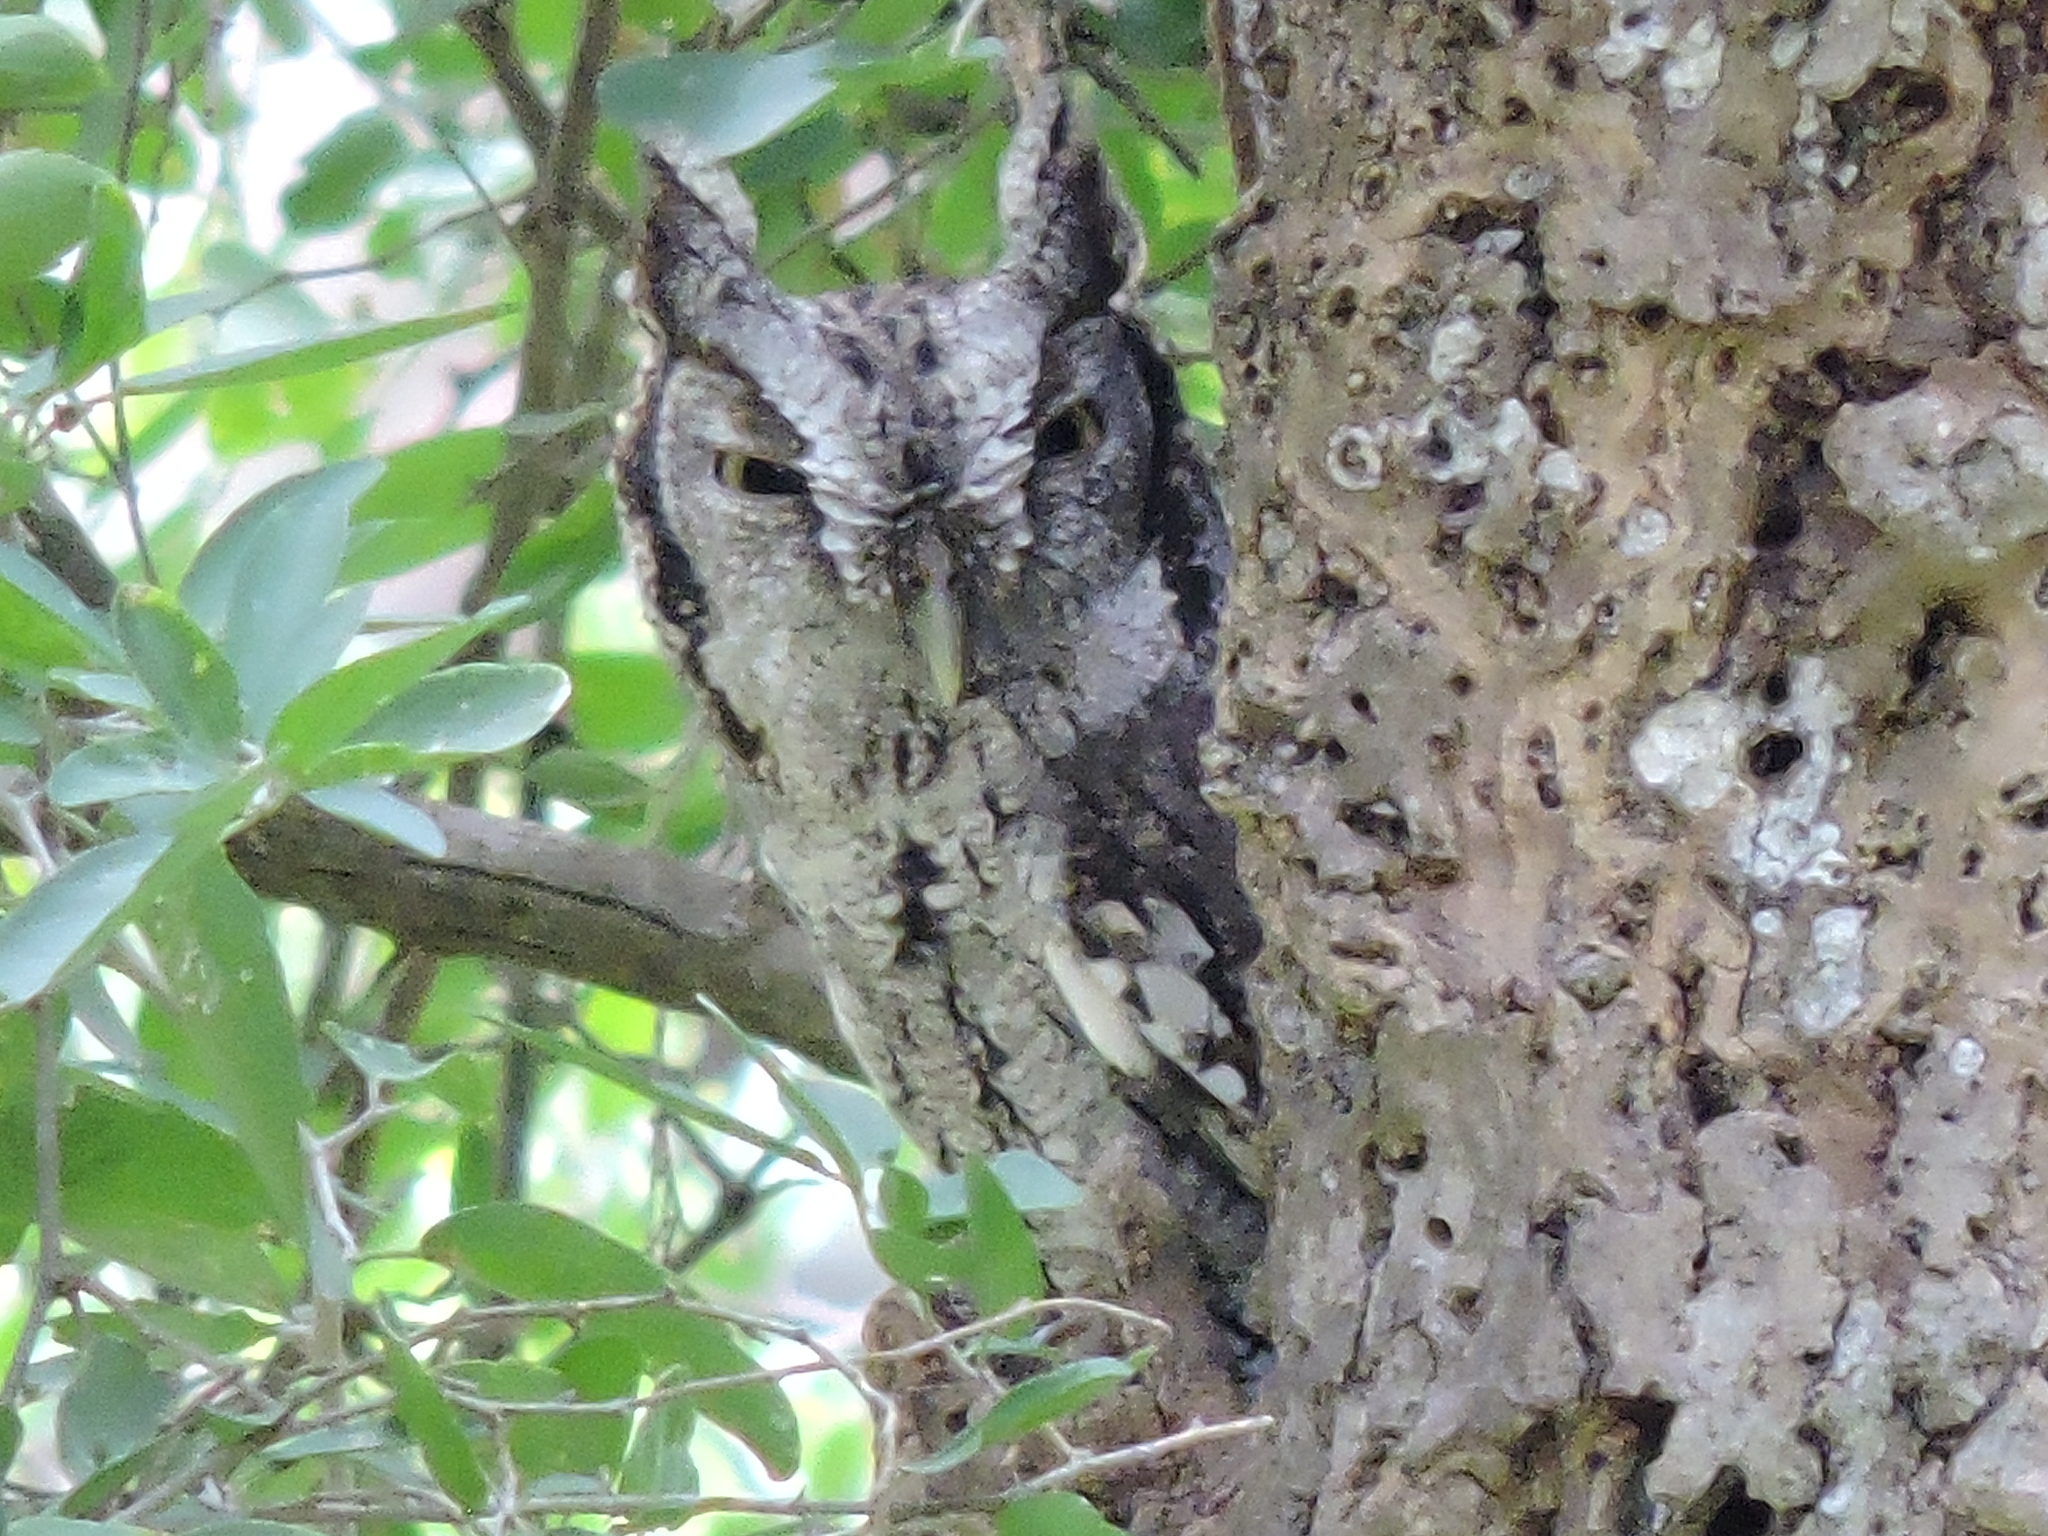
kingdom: Animalia
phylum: Chordata
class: Aves
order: Strigiformes
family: Strigidae
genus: Megascops
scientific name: Megascops asio
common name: Eastern screech-owl
